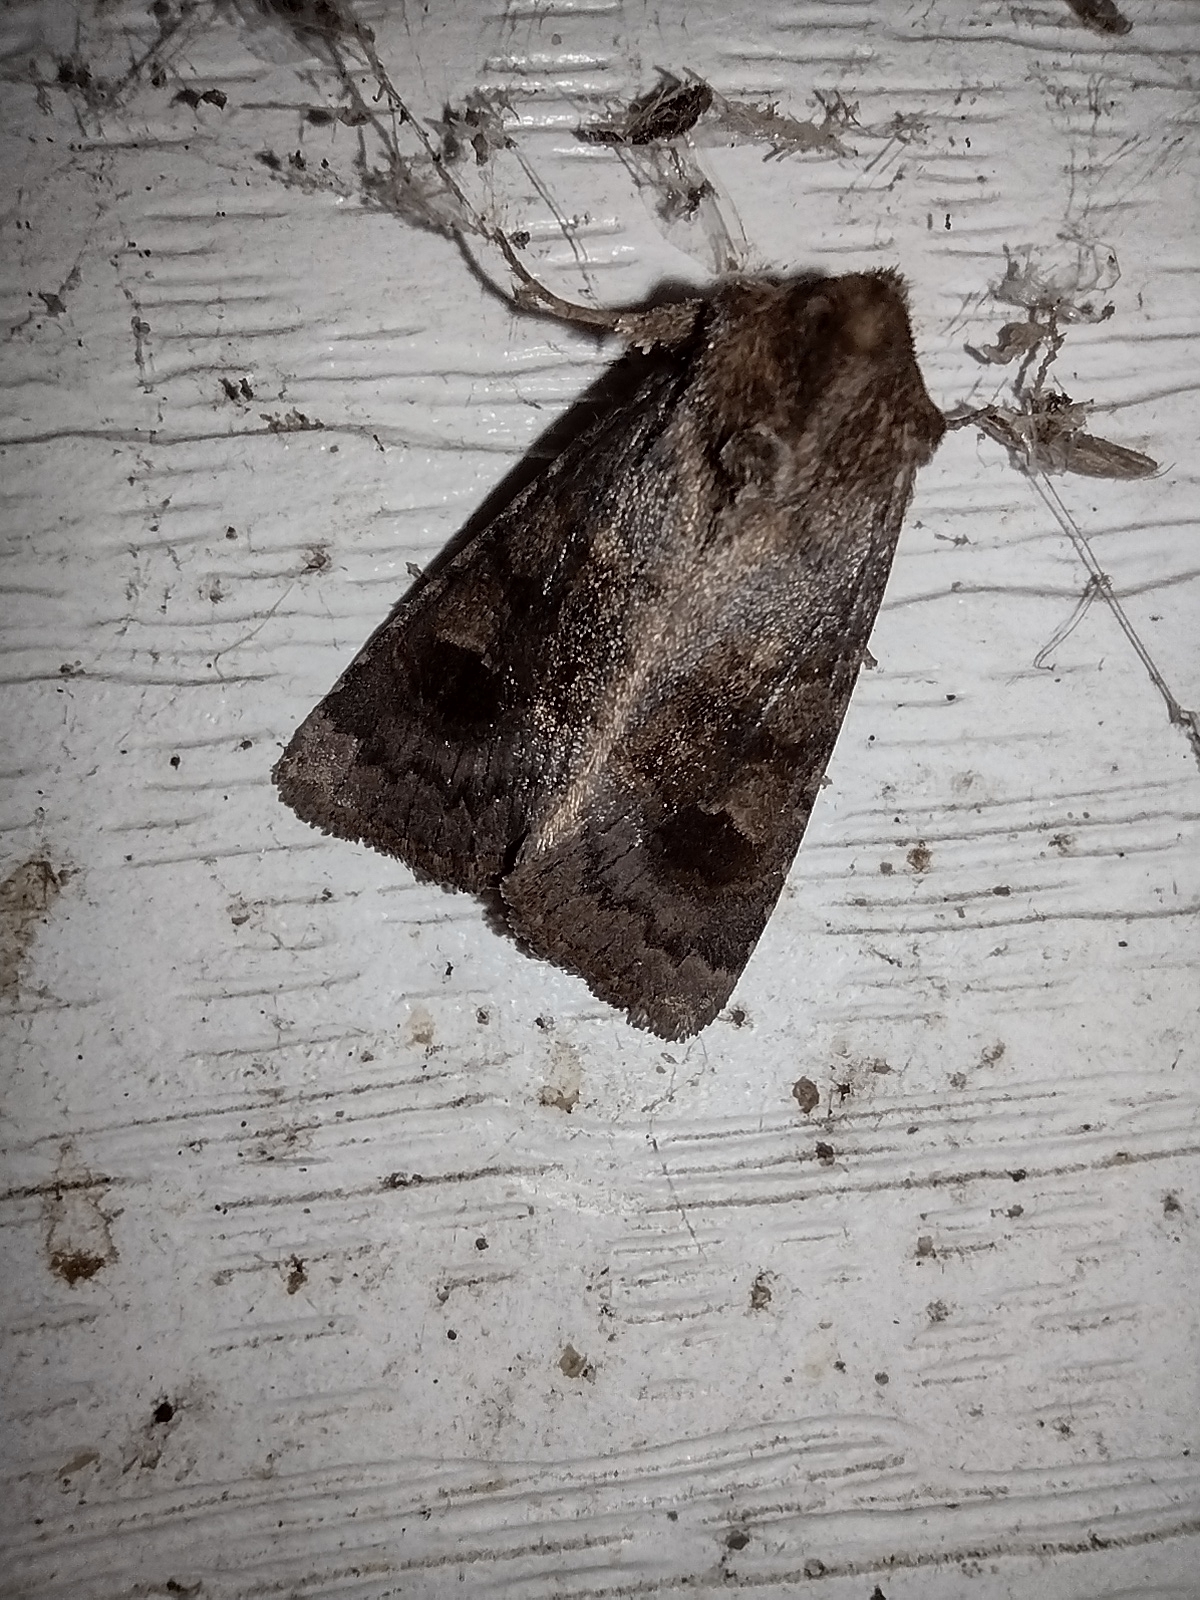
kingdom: Animalia
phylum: Arthropoda
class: Insecta
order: Lepidoptera
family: Noctuidae
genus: Nephelodes
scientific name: Nephelodes minians
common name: Bronzed cutworm
